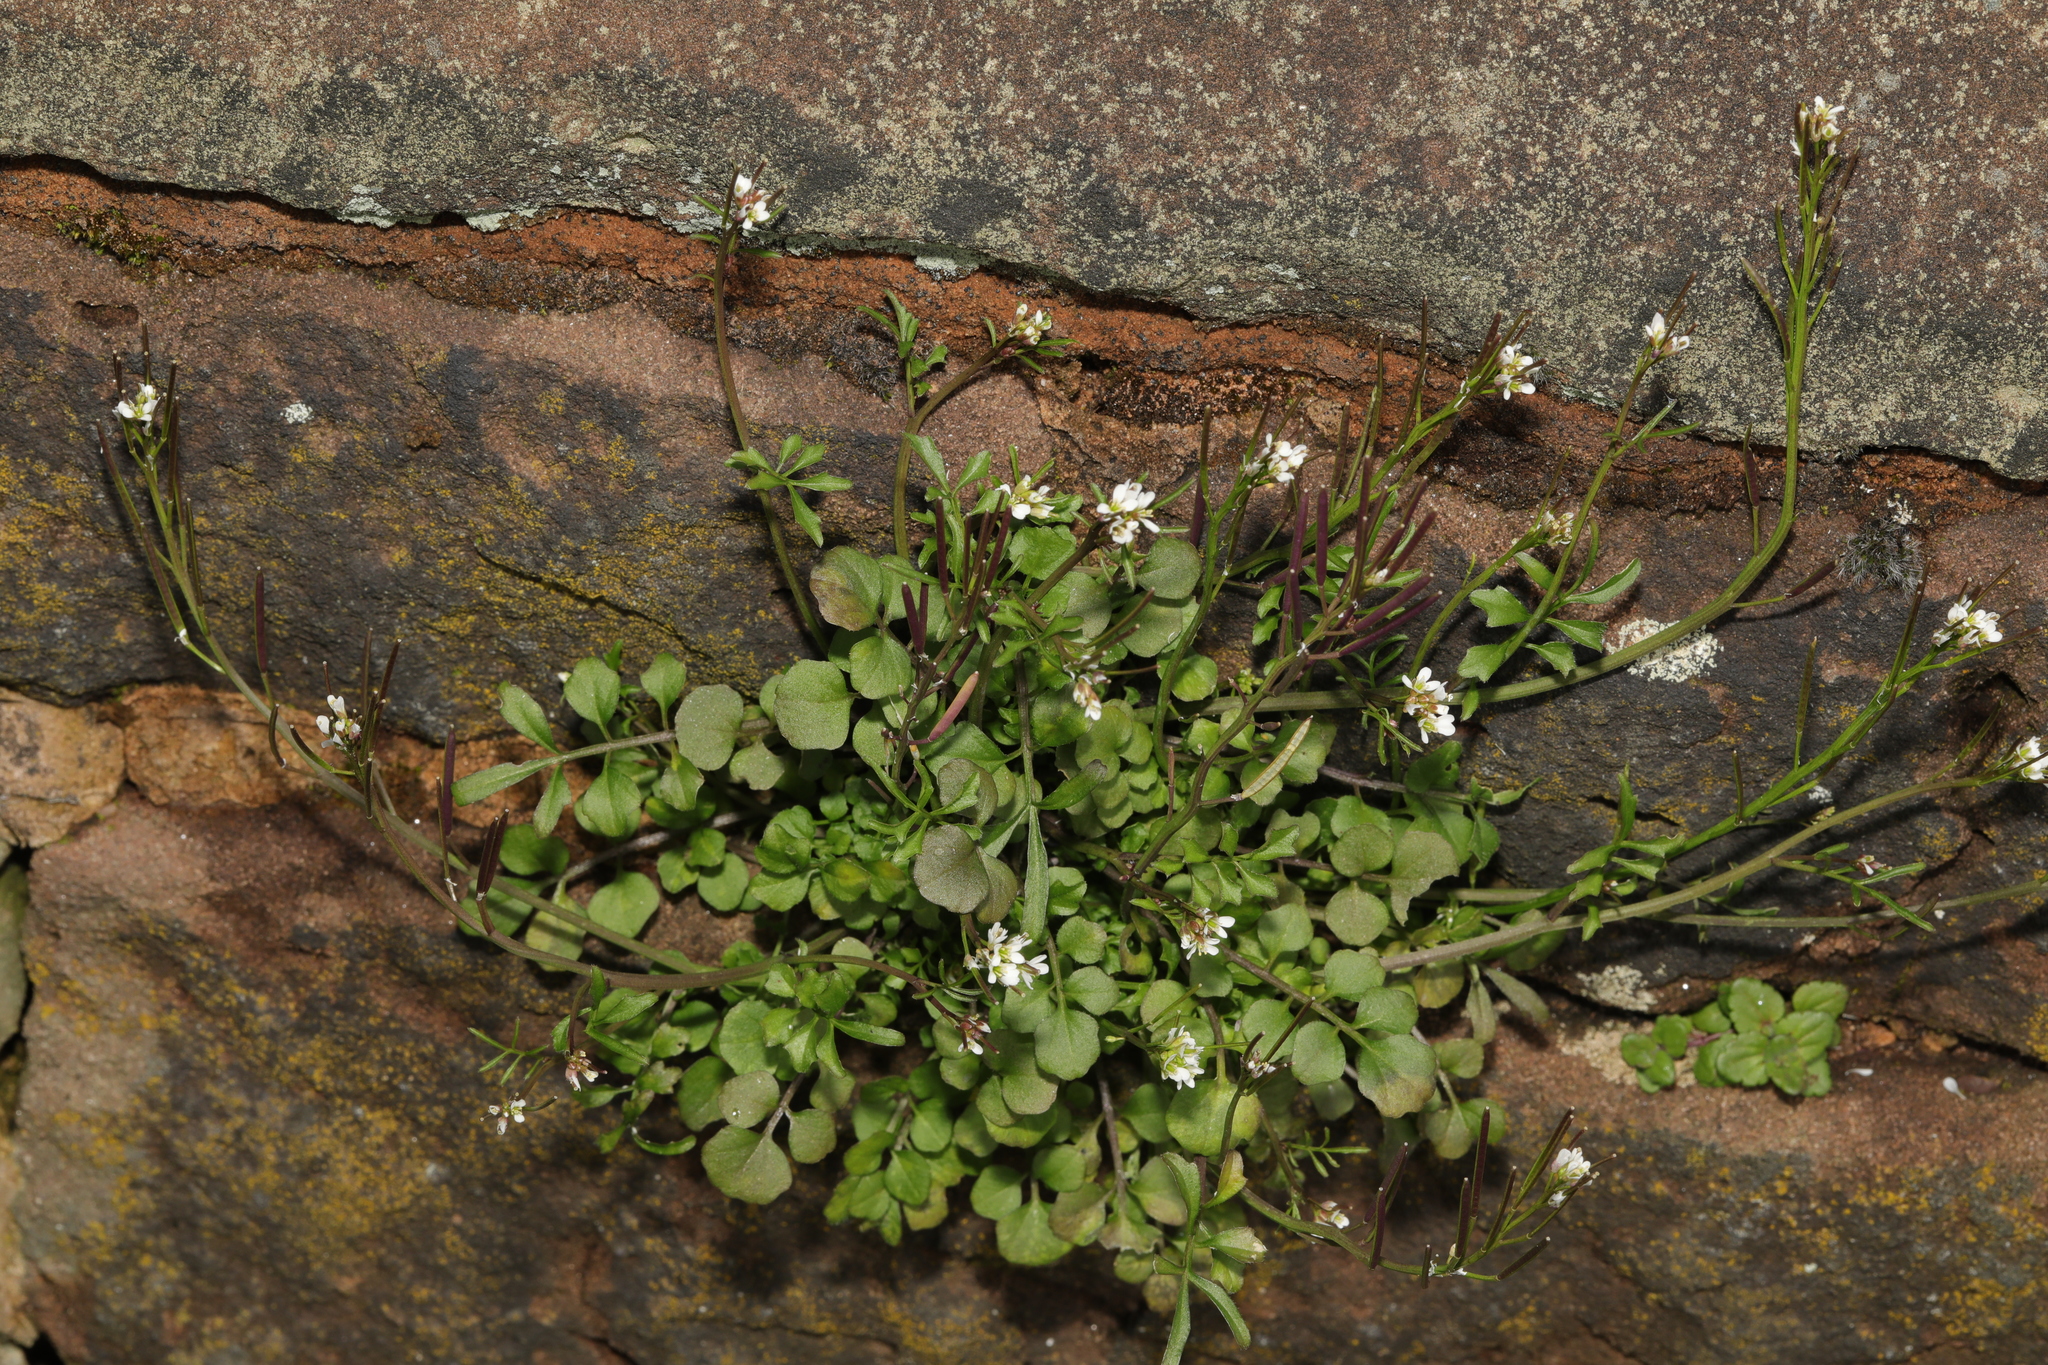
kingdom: Plantae
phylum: Tracheophyta
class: Magnoliopsida
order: Brassicales
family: Brassicaceae
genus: Cardamine
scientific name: Cardamine hirsuta
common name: Hairy bittercress
